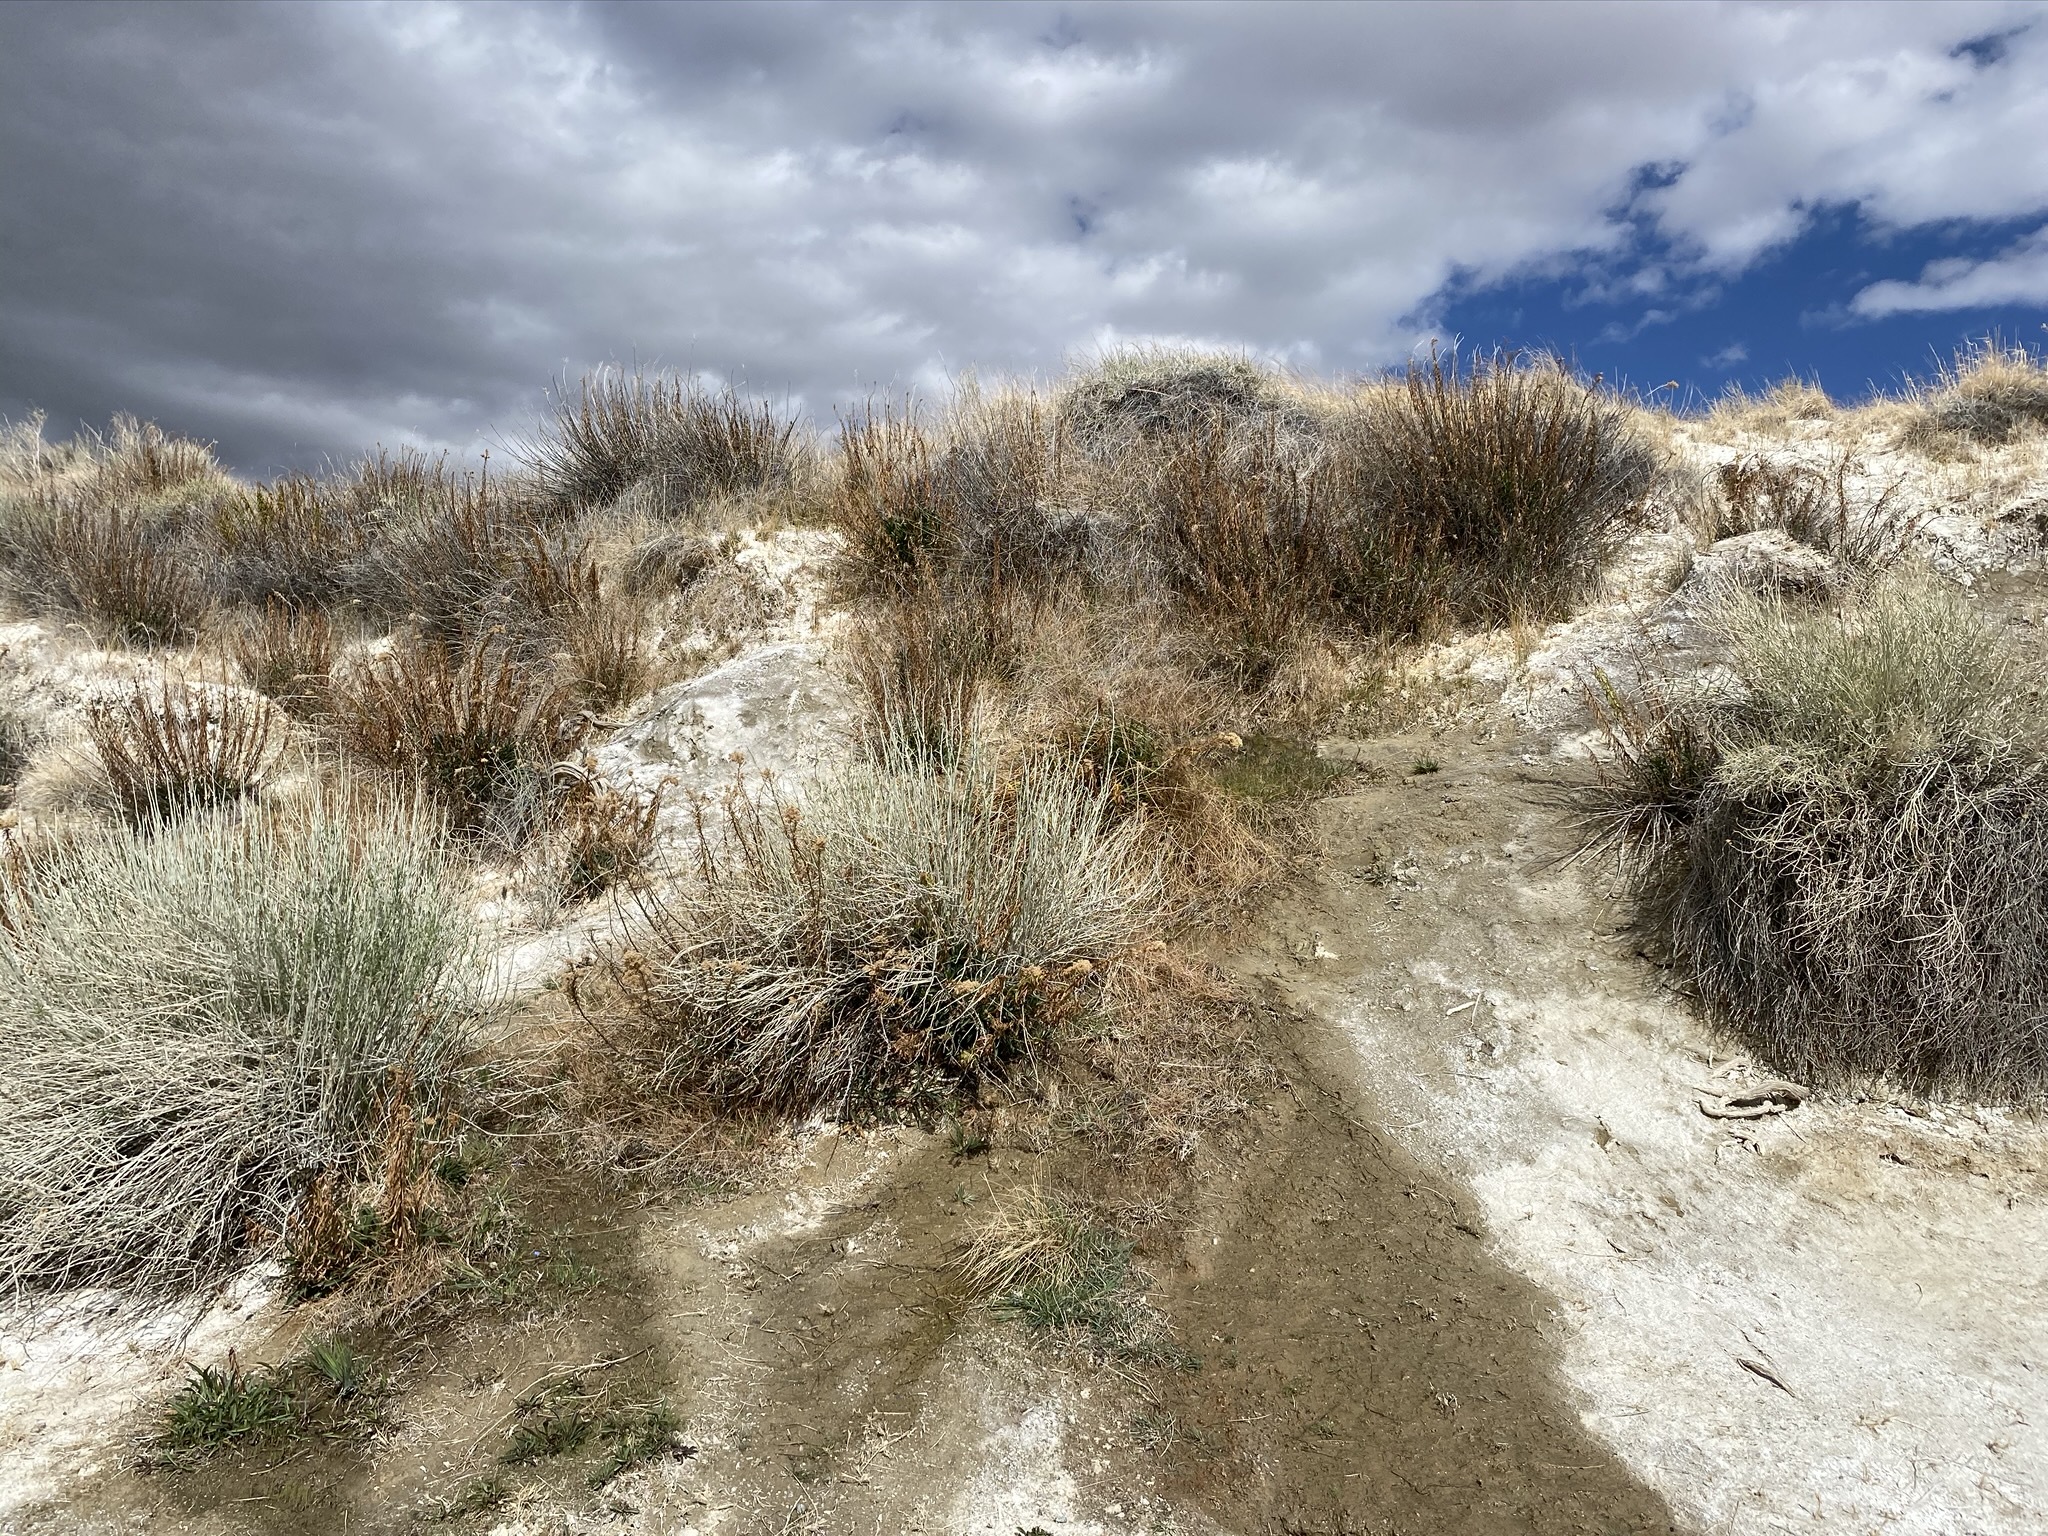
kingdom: Plantae
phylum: Tracheophyta
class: Liliopsida
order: Asparagales
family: Iridaceae
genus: Sisyrinchium
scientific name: Sisyrinchium funereum
